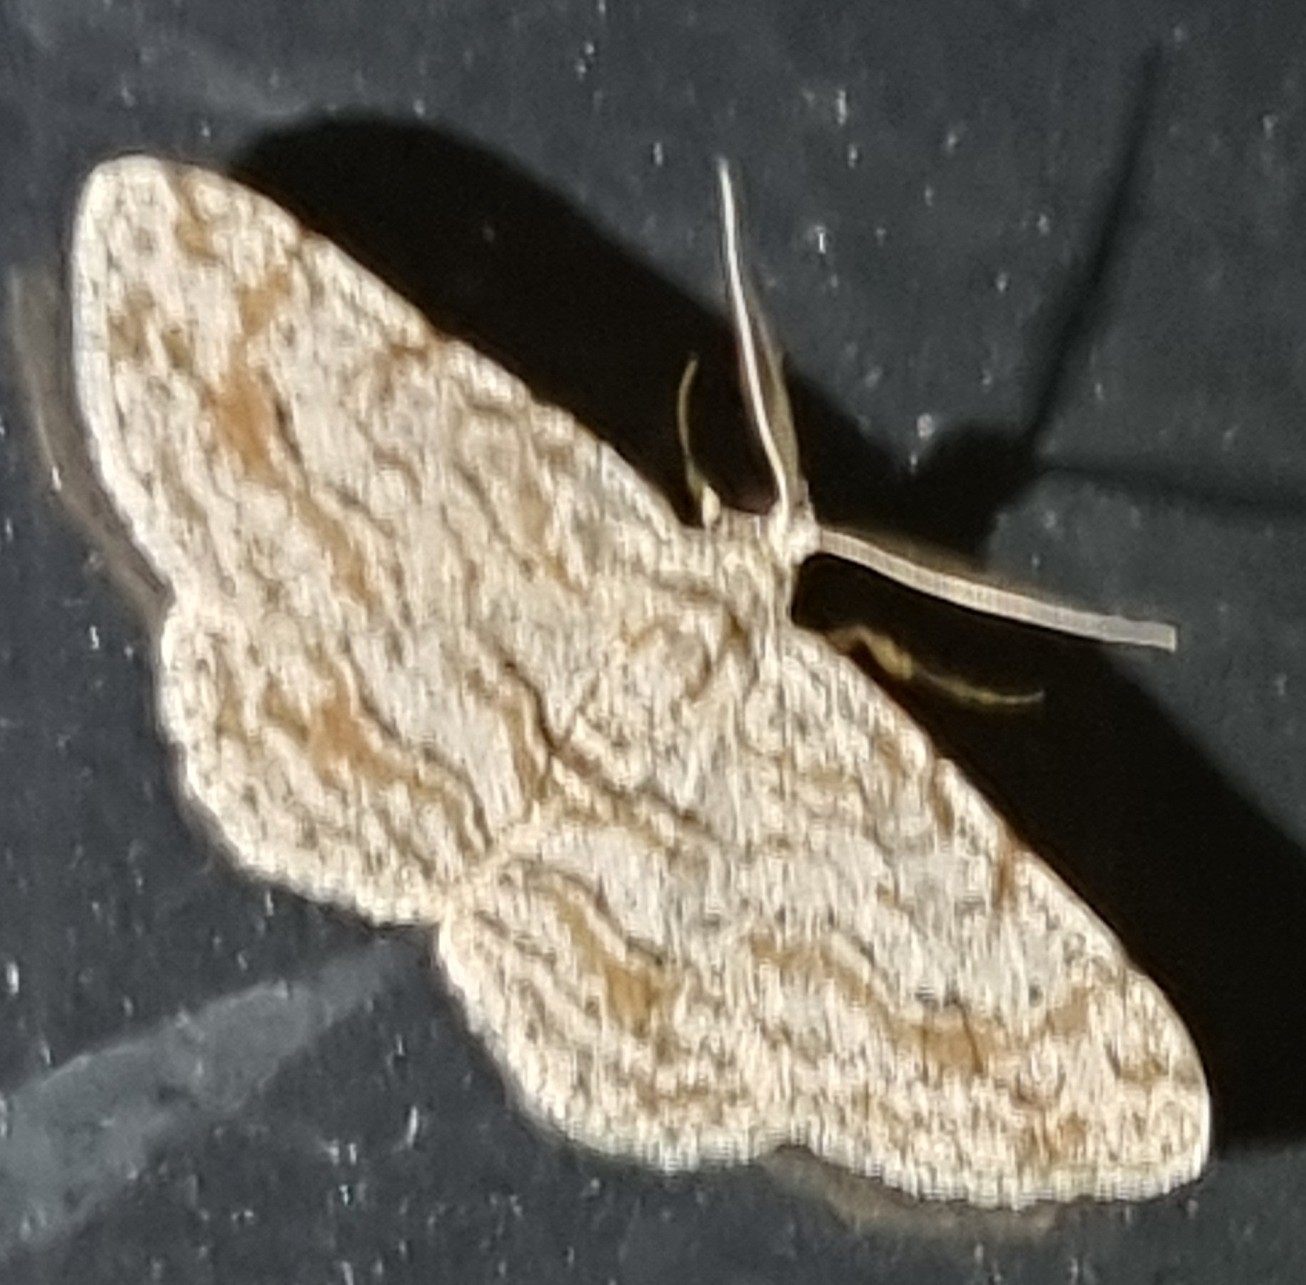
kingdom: Animalia
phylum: Arthropoda
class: Insecta
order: Lepidoptera
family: Geometridae
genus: Didymoctenia
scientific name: Didymoctenia exsuperata
